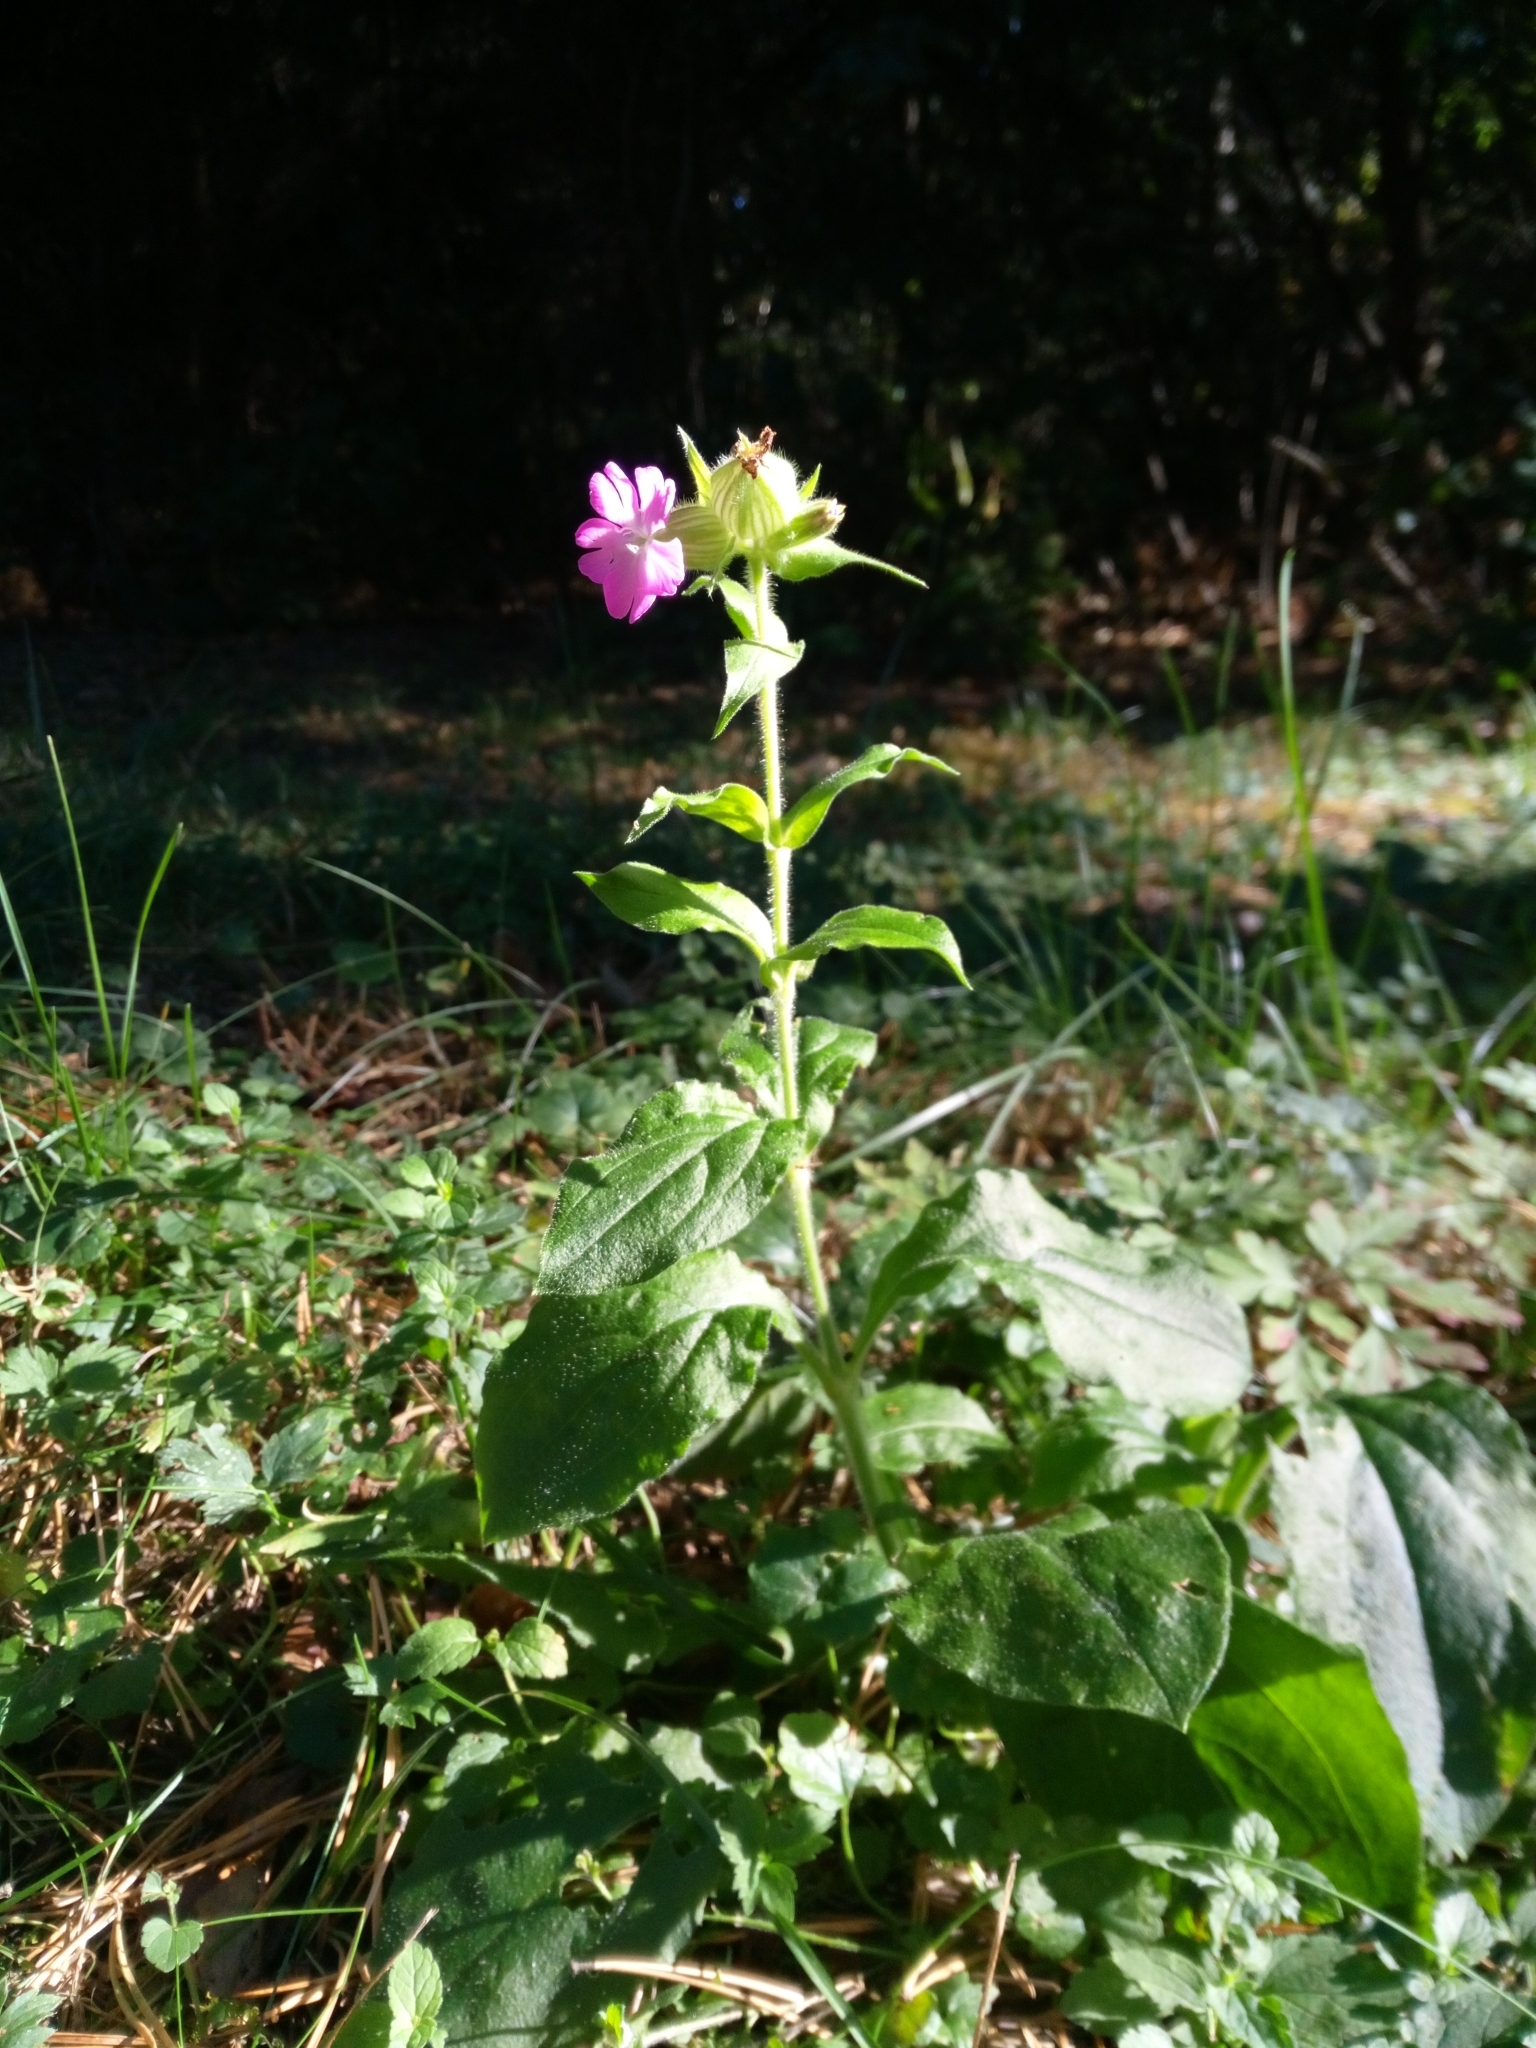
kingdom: Plantae
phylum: Tracheophyta
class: Magnoliopsida
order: Caryophyllales
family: Caryophyllaceae
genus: Silene
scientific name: Silene dioica
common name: Red campion
